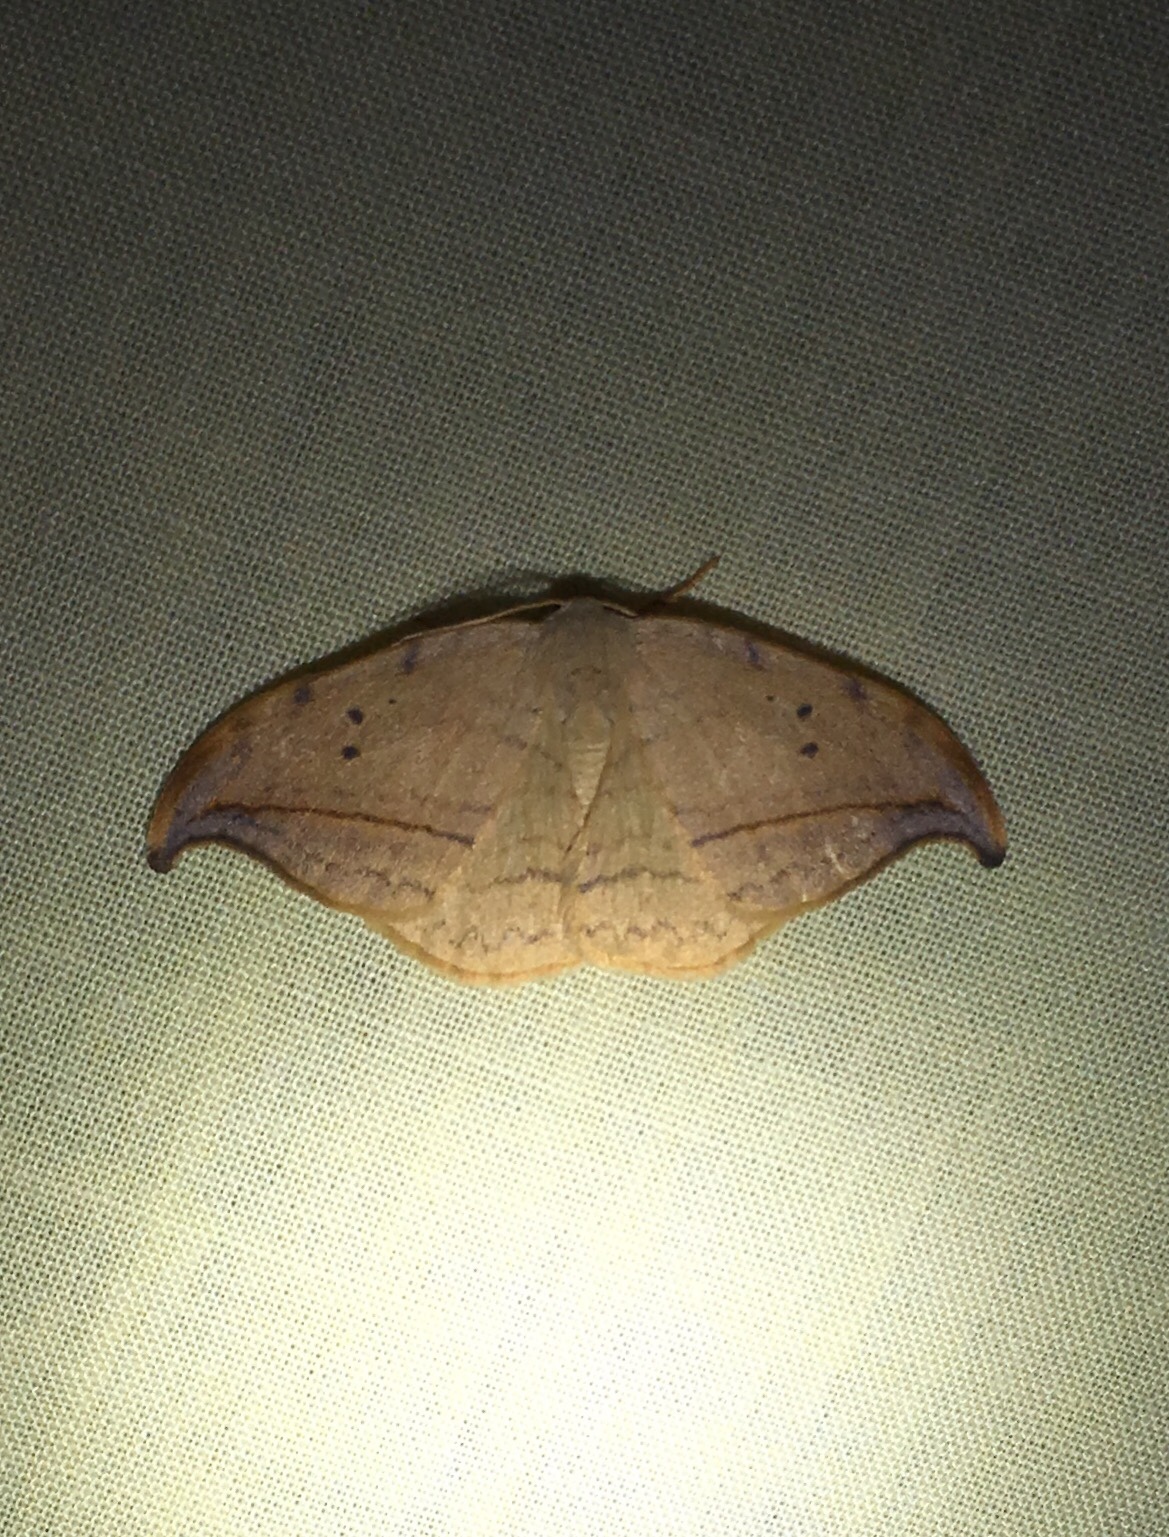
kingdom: Animalia
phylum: Arthropoda
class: Insecta
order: Lepidoptera
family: Drepanidae
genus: Drepana
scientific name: Drepana arcuata
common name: Arched hooktip moth
